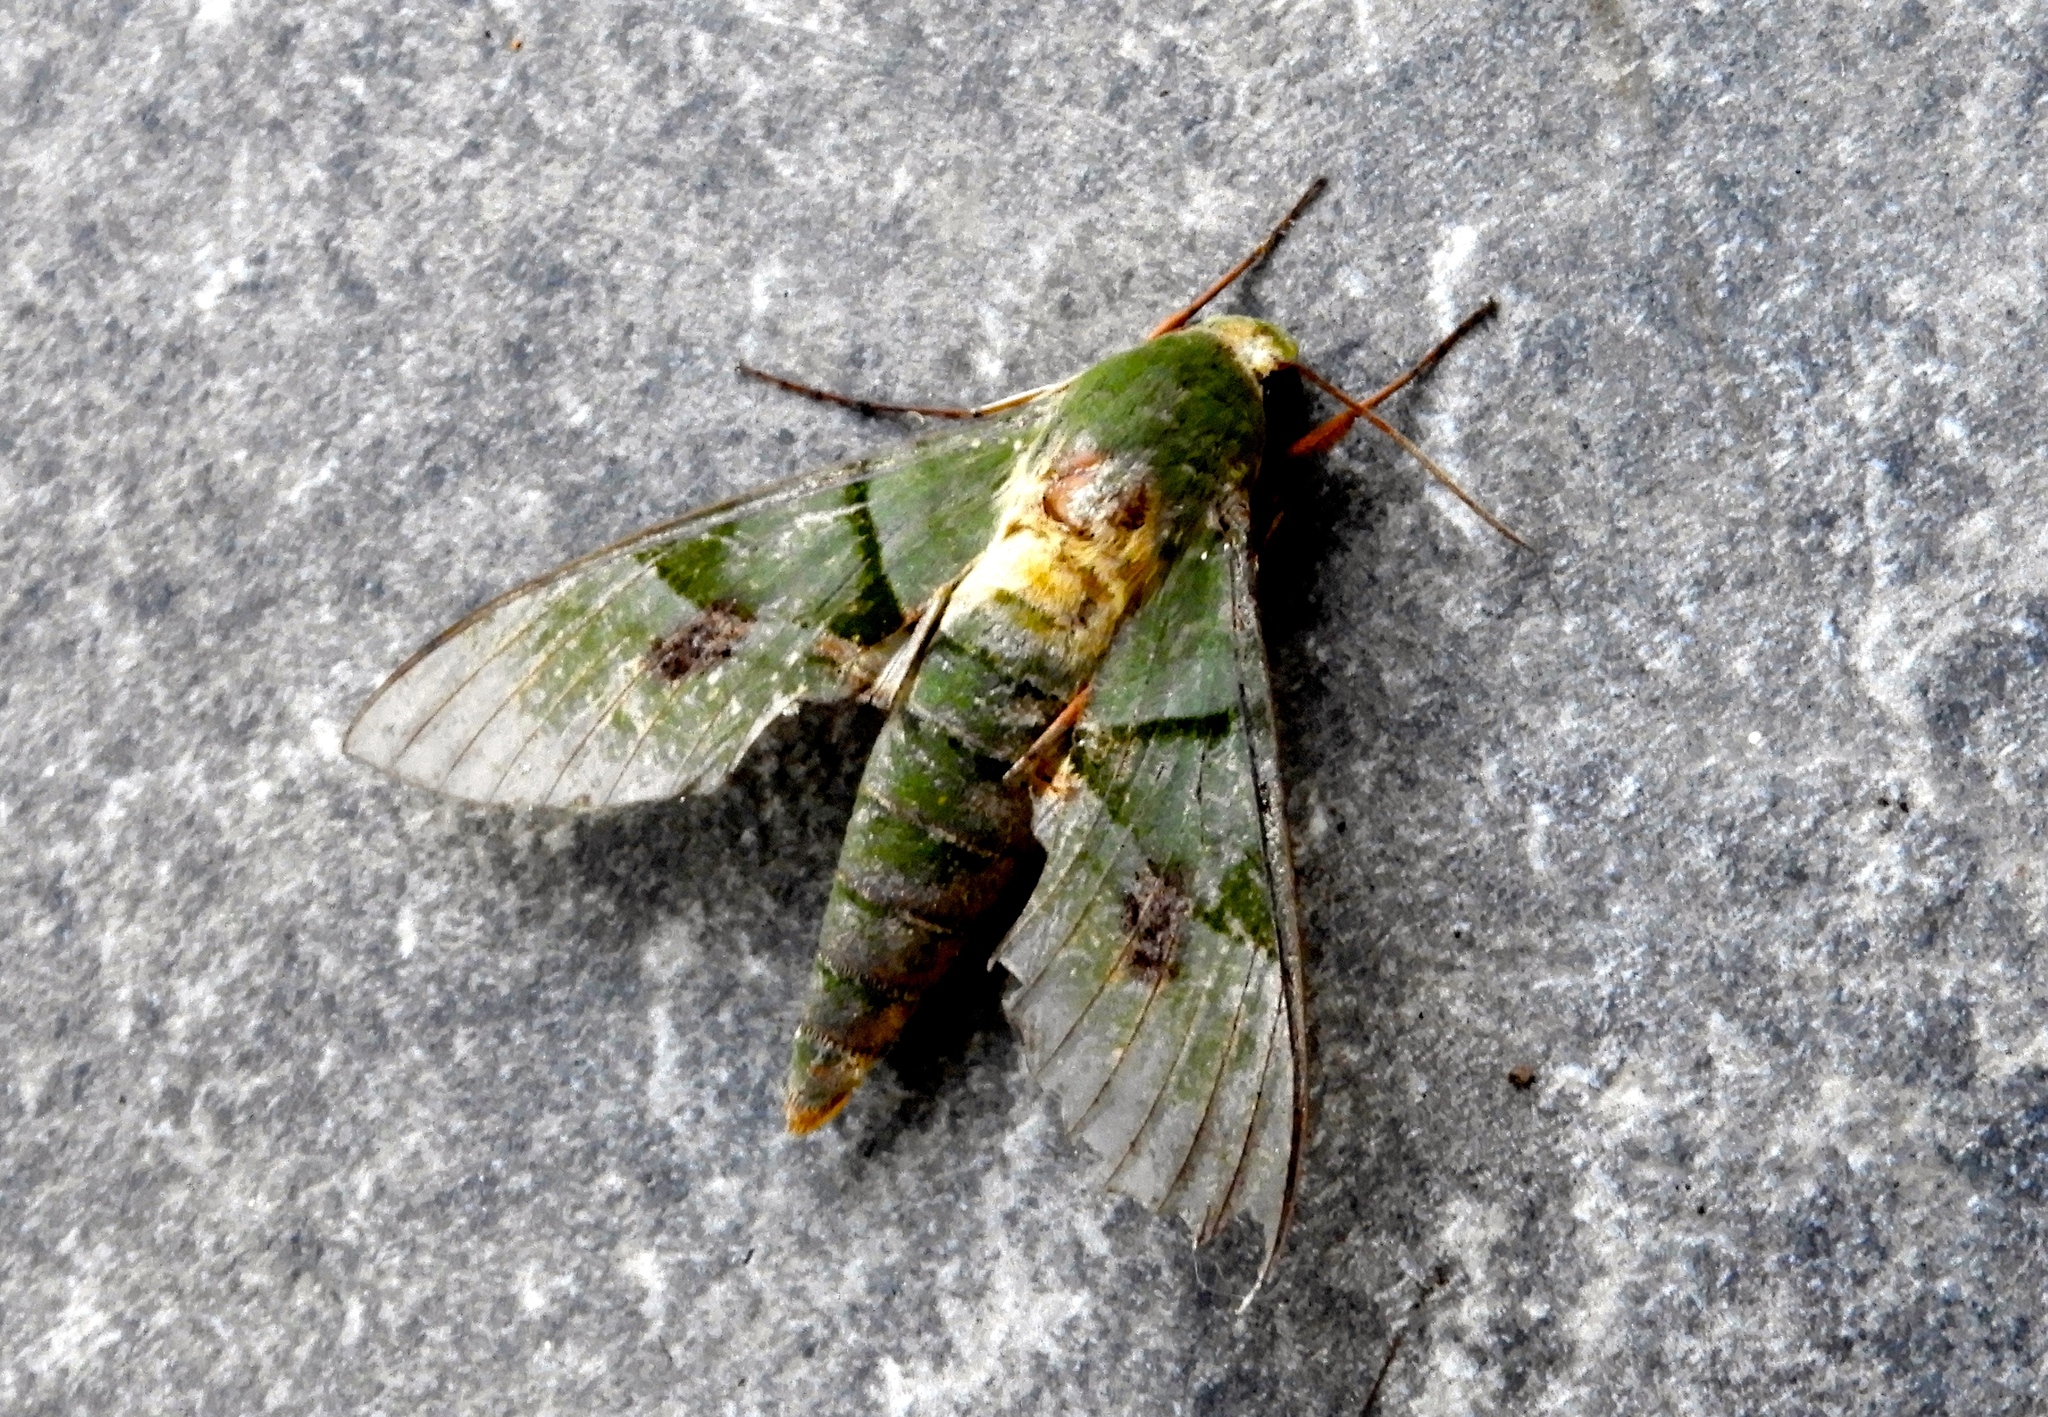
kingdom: Animalia
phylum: Arthropoda
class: Insecta
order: Lepidoptera
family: Sphingidae
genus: Eumorpha
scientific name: Eumorpha labruscae
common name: Gaudy sphinx
